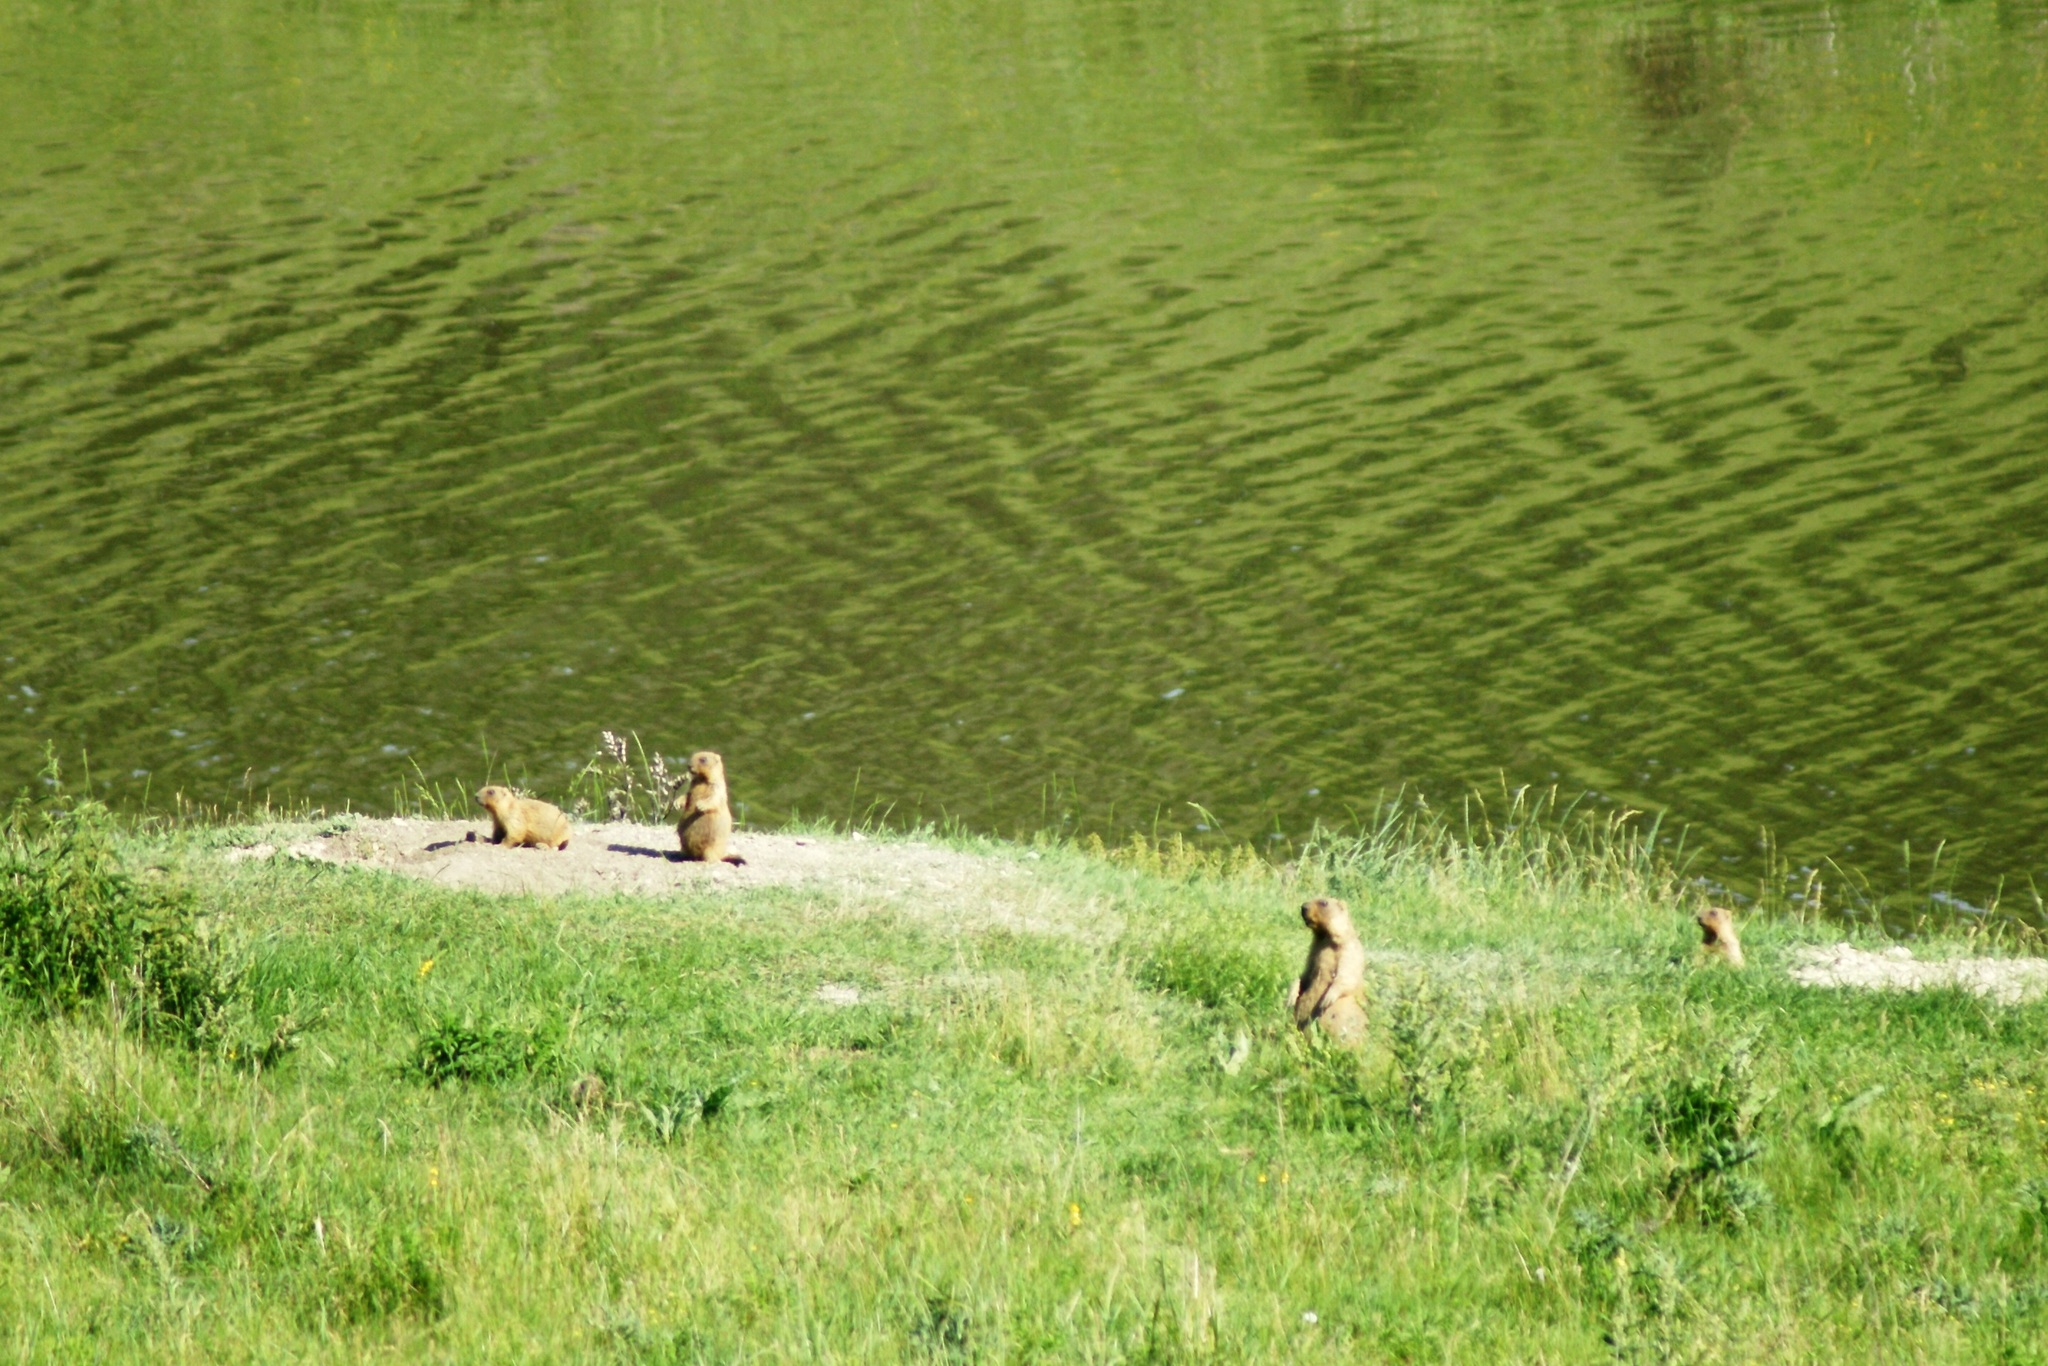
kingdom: Animalia
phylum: Chordata
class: Mammalia
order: Rodentia
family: Sciuridae
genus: Marmota
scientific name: Marmota bobak
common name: Bobak marmot
